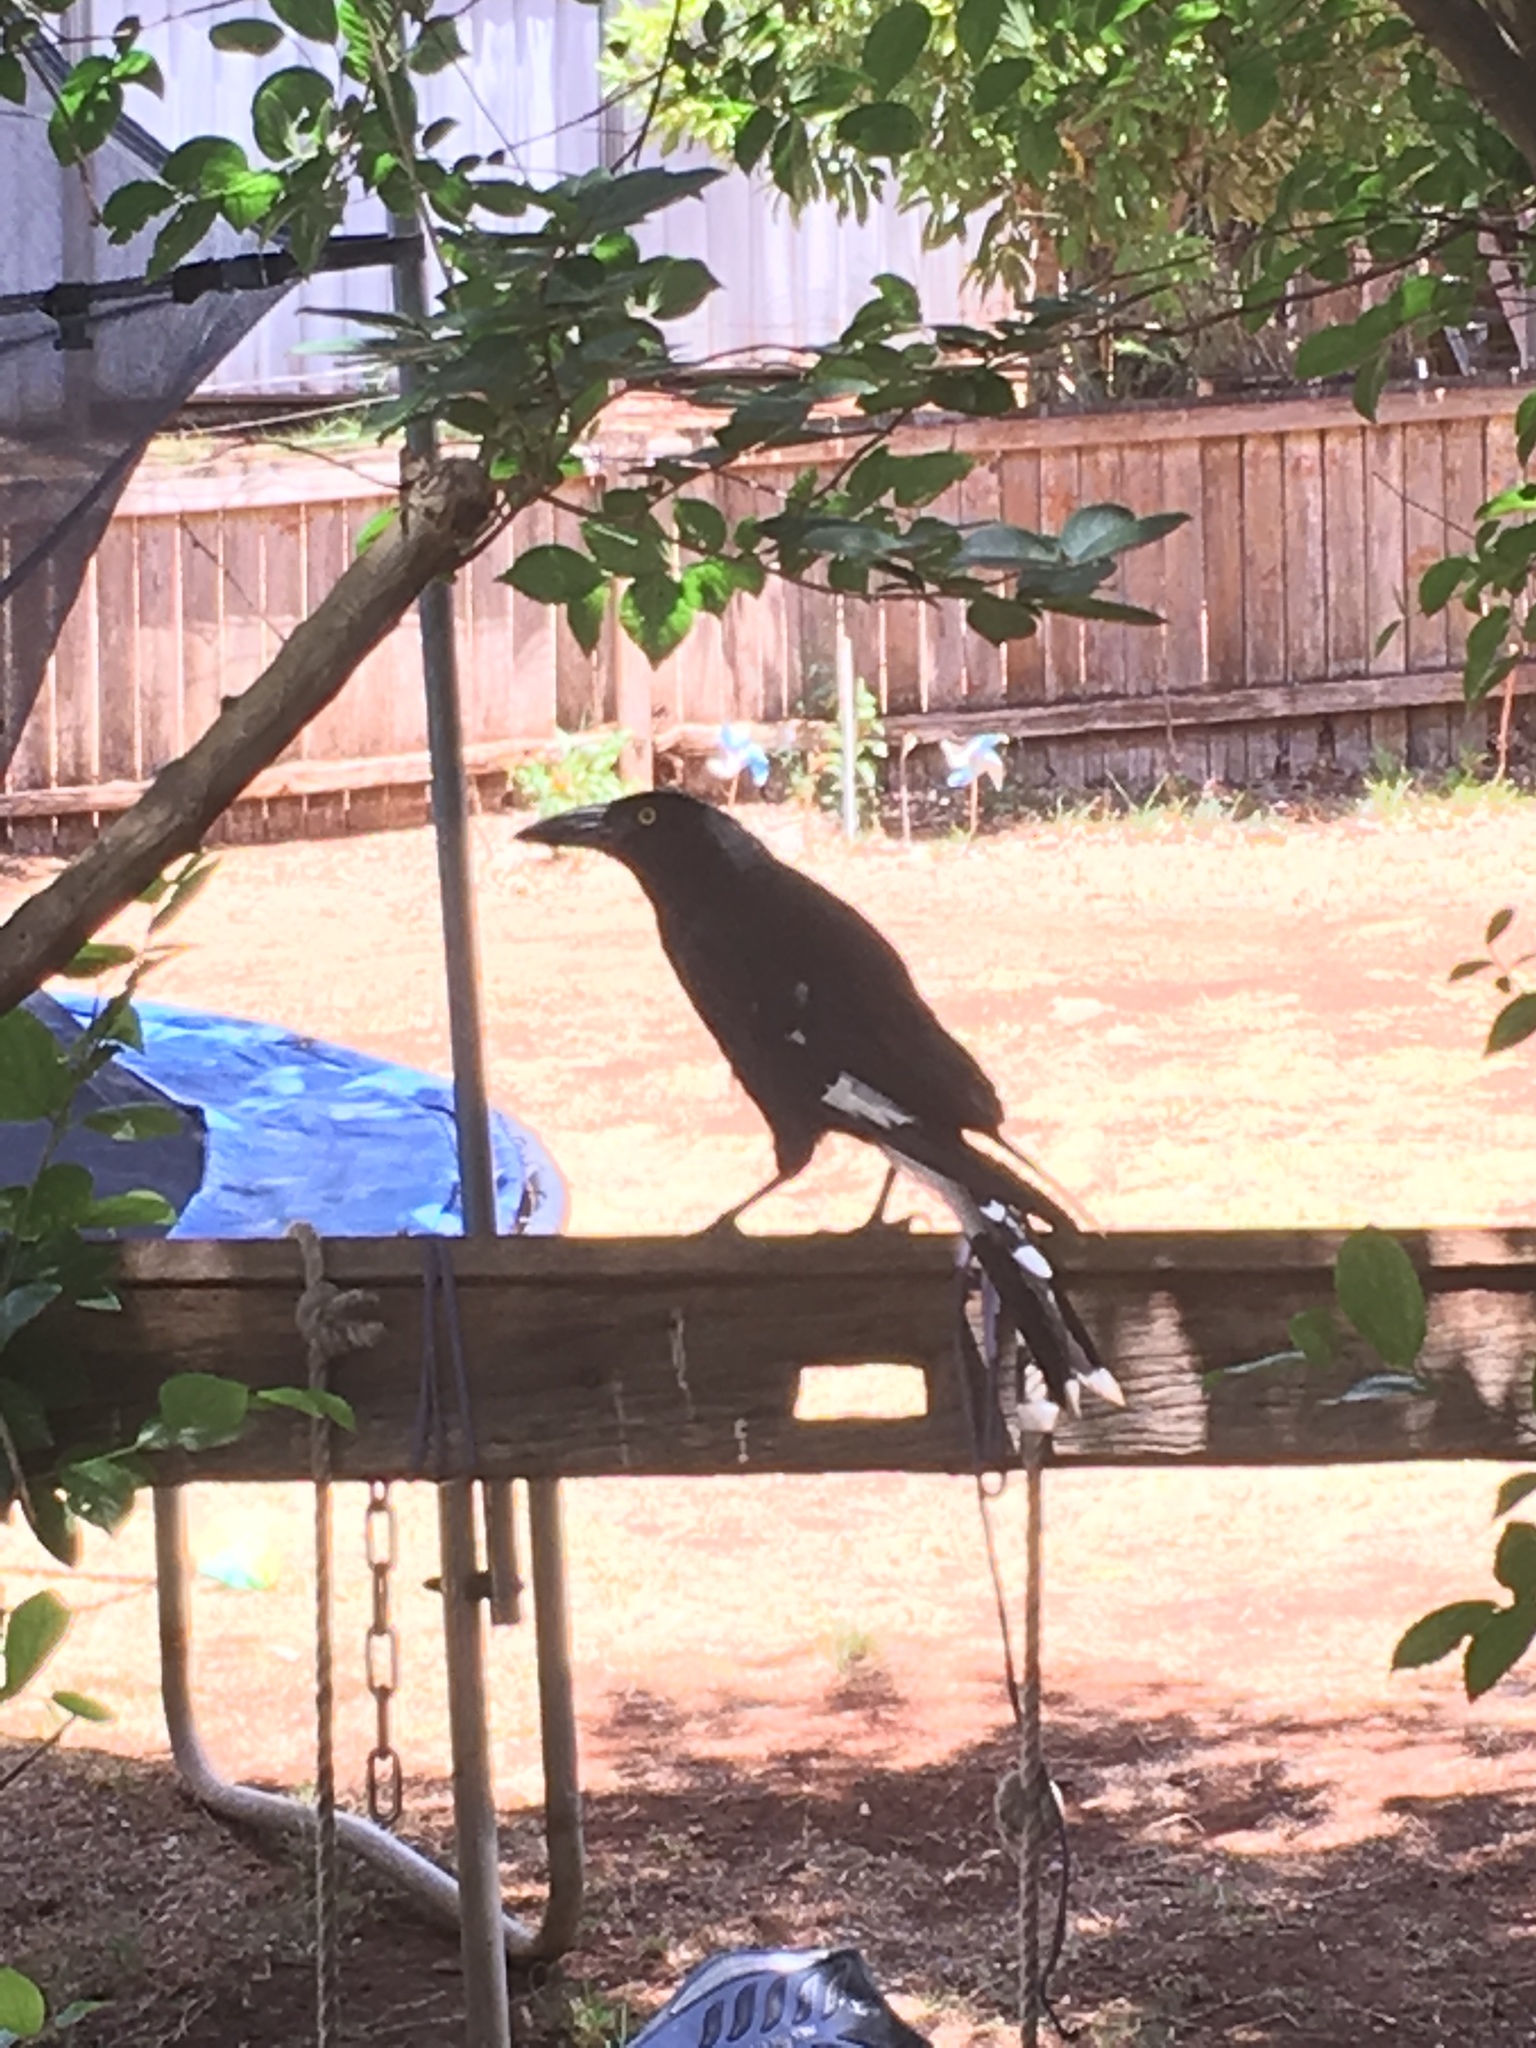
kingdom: Animalia
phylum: Chordata
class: Aves
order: Passeriformes
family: Cracticidae
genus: Strepera
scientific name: Strepera graculina
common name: Pied currawong
